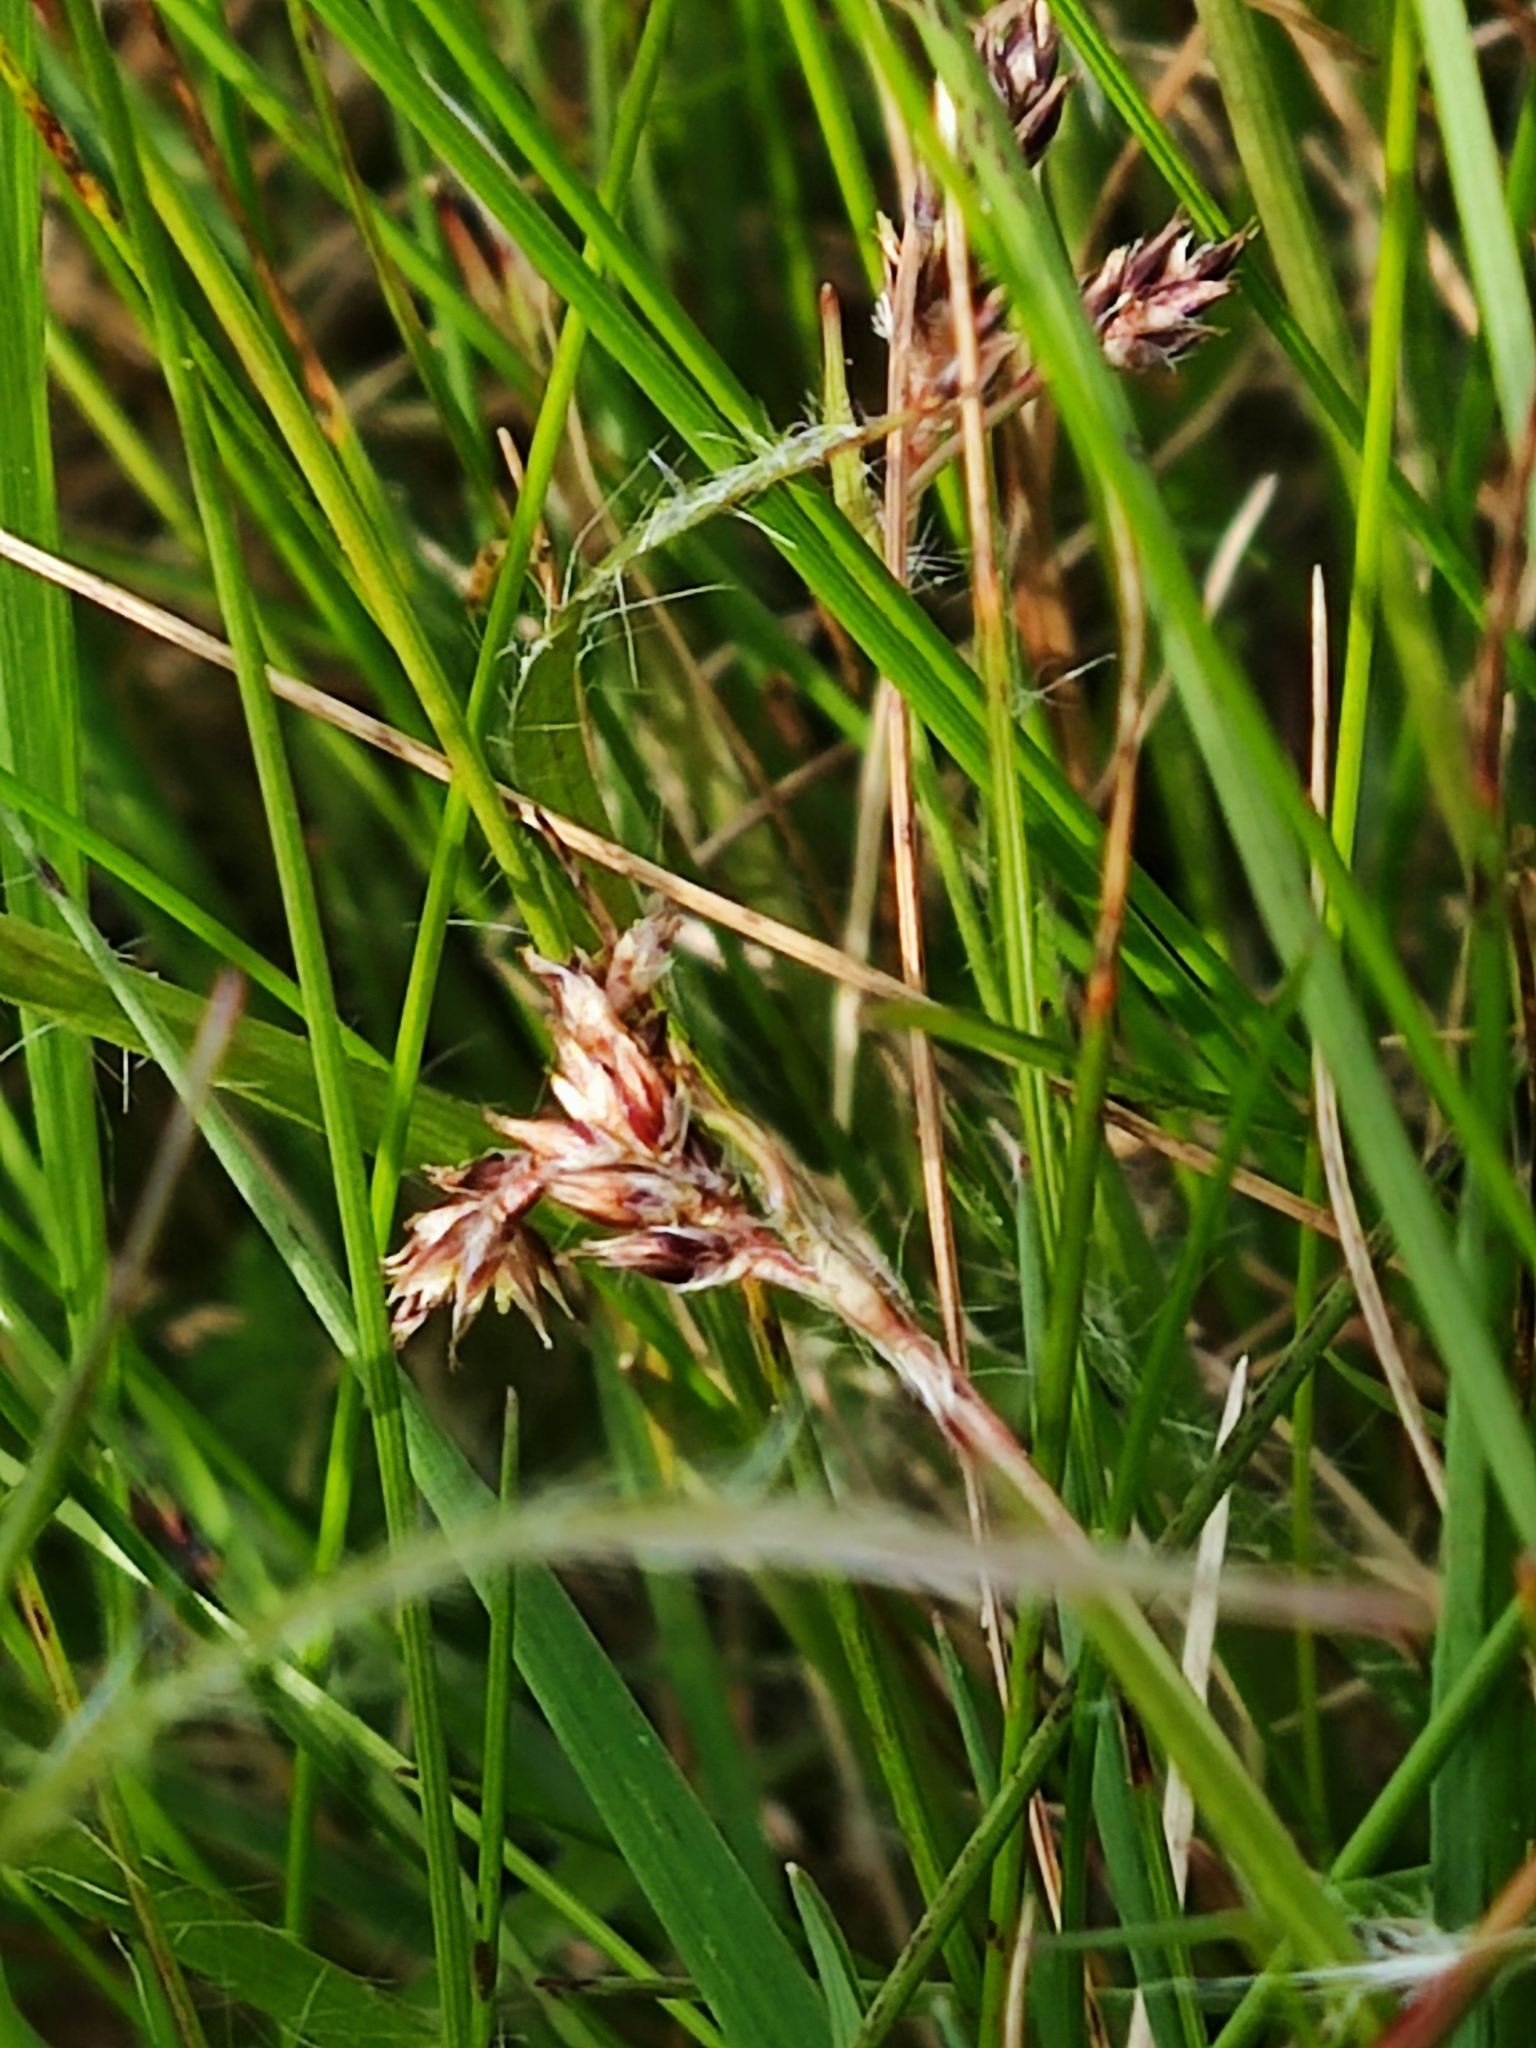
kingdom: Plantae
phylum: Tracheophyta
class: Liliopsida
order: Poales
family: Juncaceae
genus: Luzula
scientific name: Luzula campestris
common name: Field wood-rush
